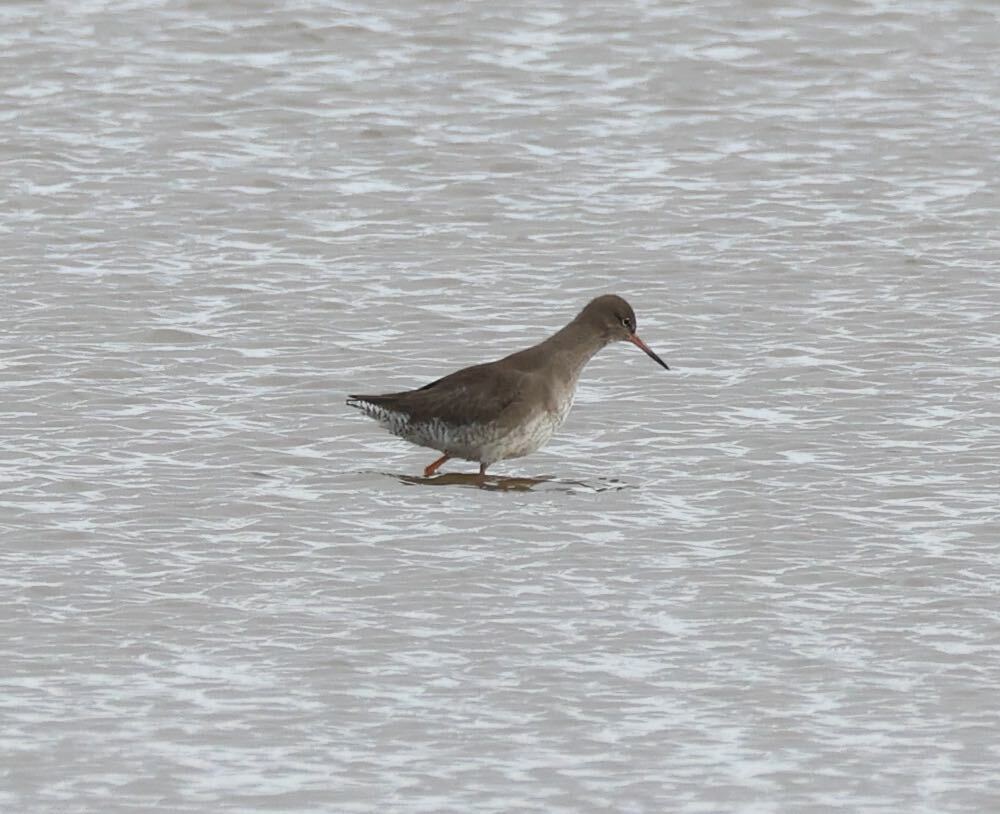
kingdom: Animalia
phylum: Chordata
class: Aves
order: Charadriiformes
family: Scolopacidae
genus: Tringa
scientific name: Tringa totanus
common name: Common redshank
